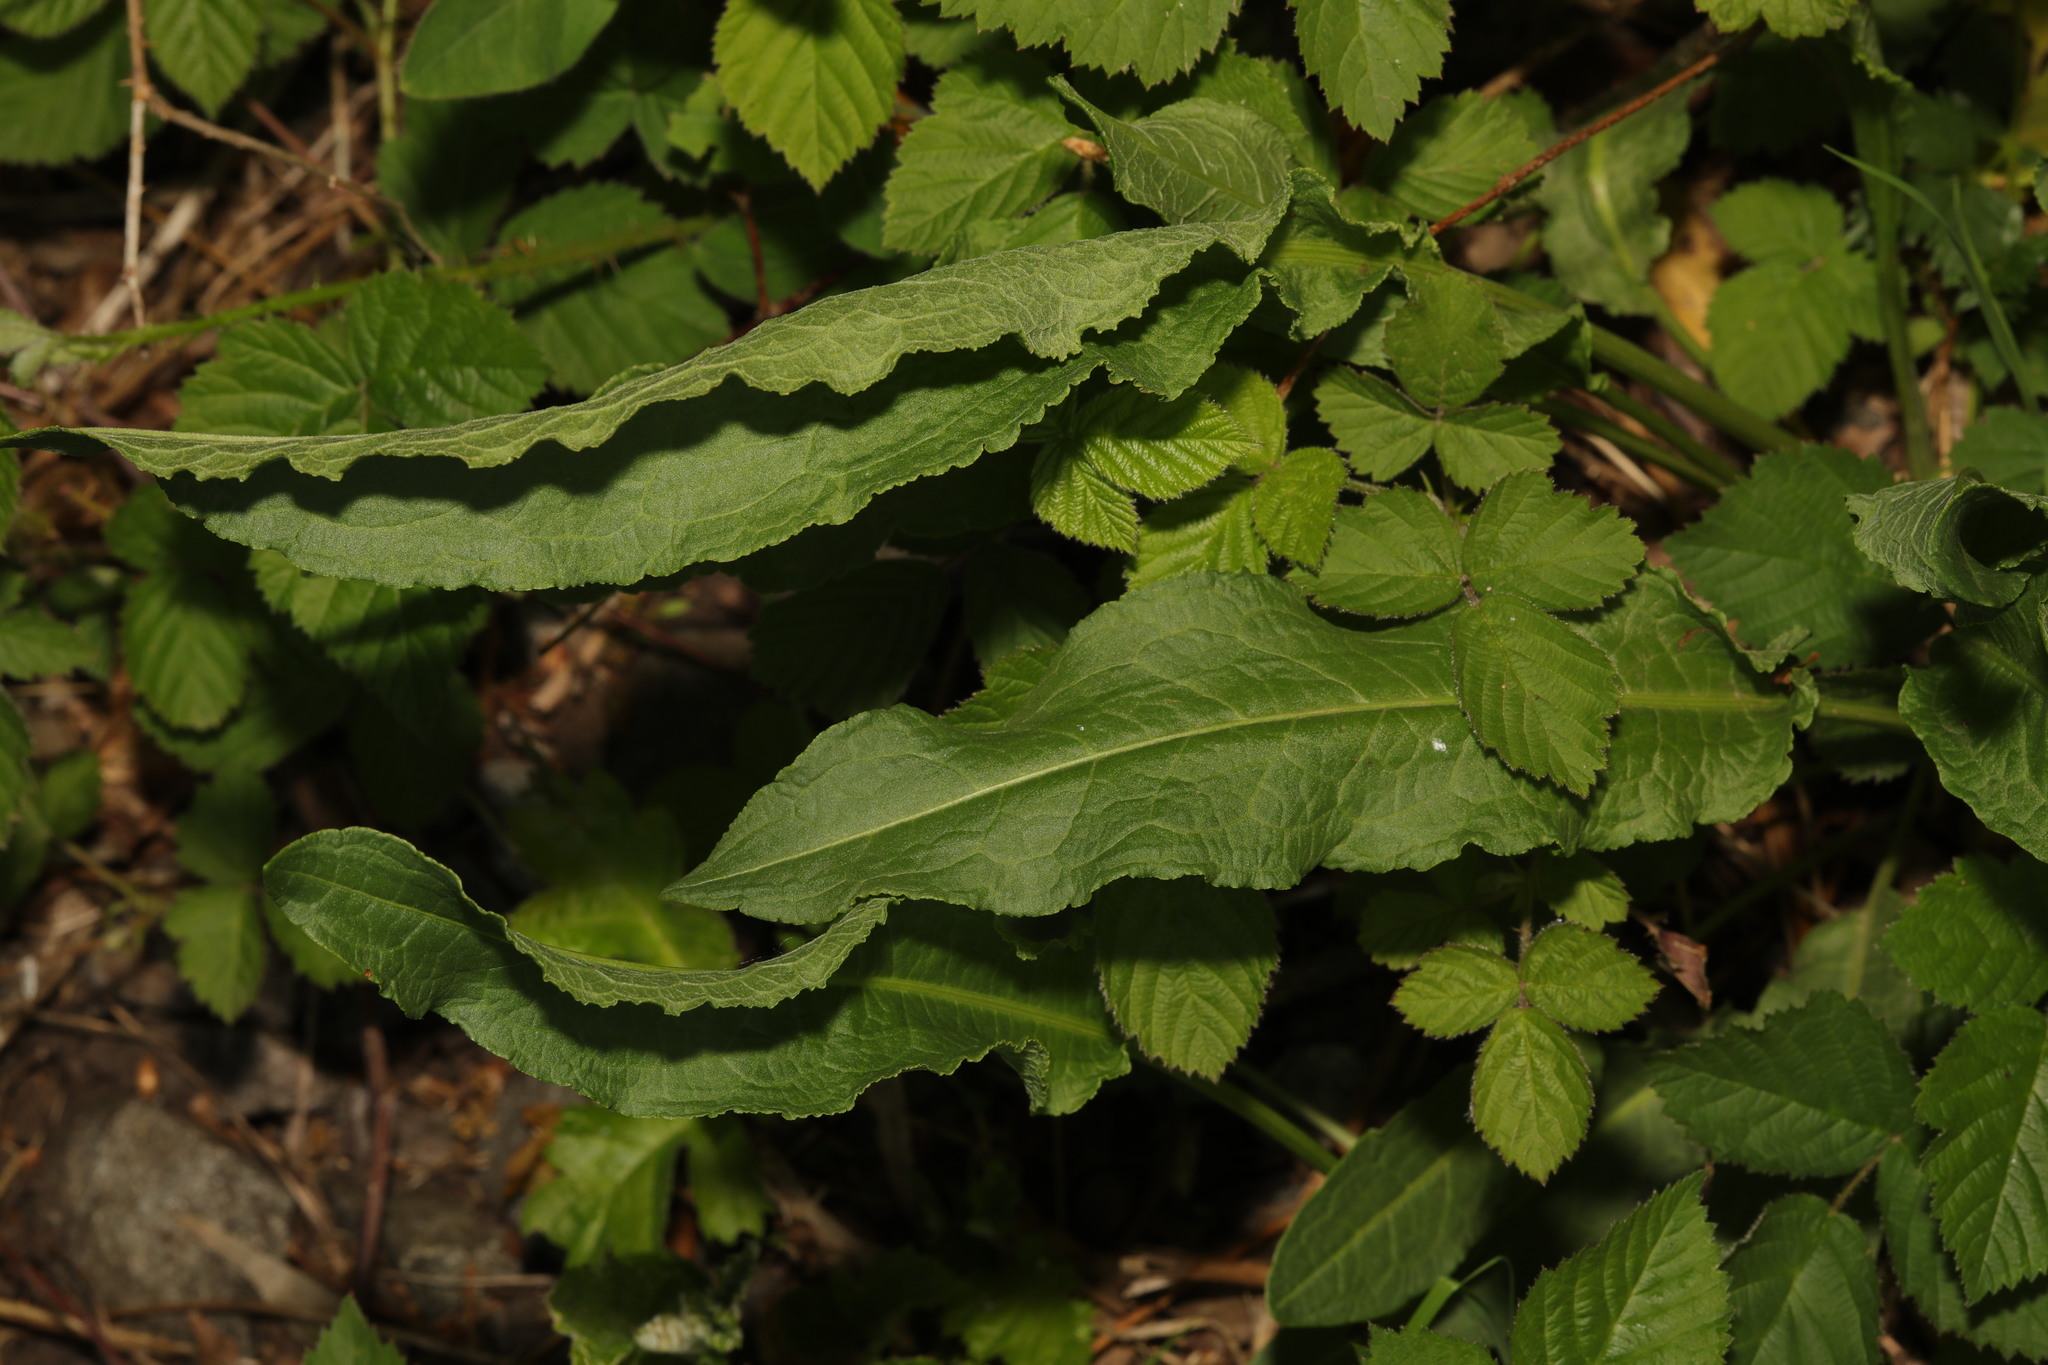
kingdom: Plantae
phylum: Tracheophyta
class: Magnoliopsida
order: Caryophyllales
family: Polygonaceae
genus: Rumex
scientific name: Rumex crispus
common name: Curled dock
